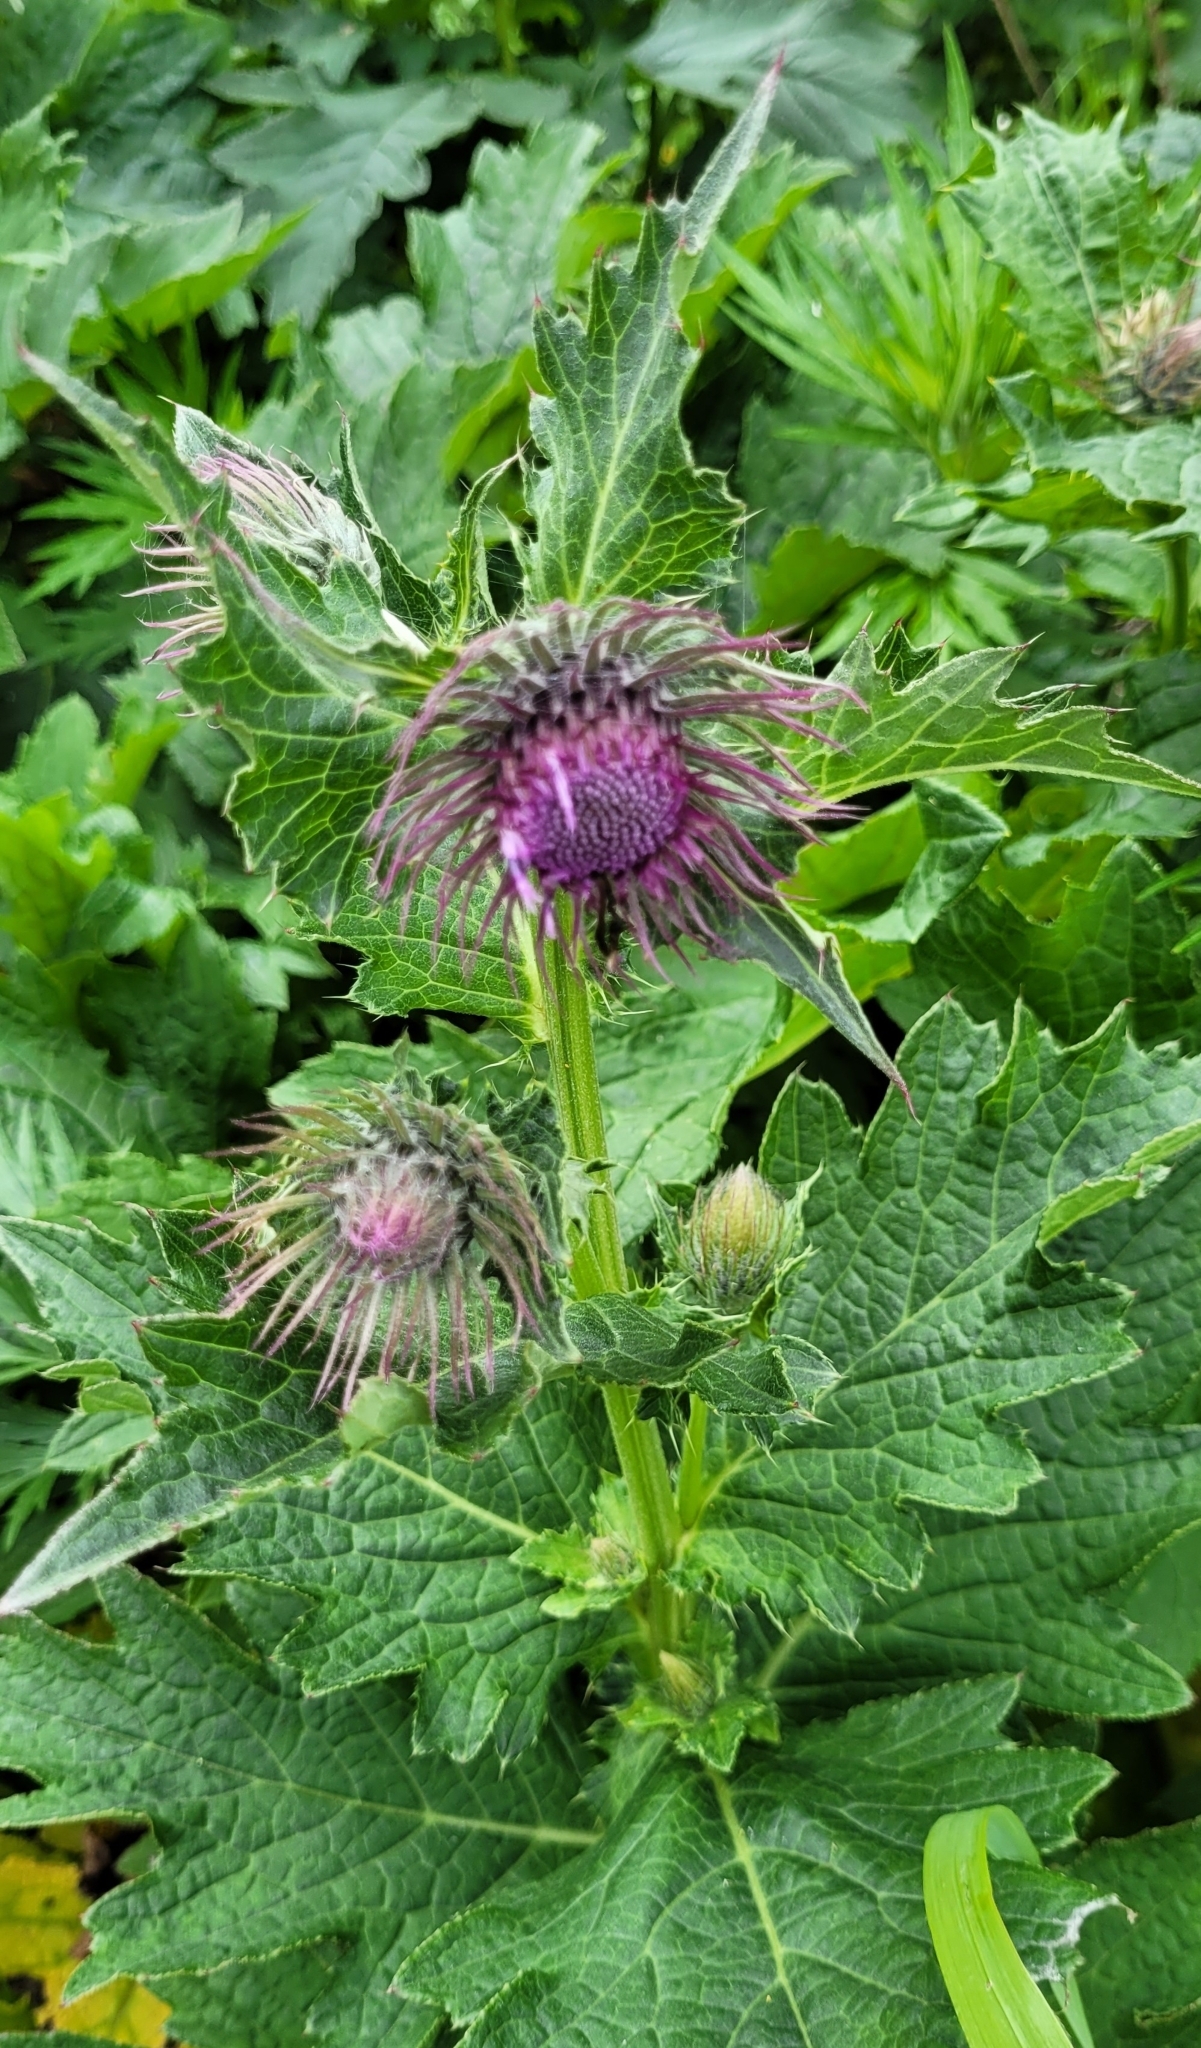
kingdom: Plantae
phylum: Tracheophyta
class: Magnoliopsida
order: Asterales
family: Asteraceae
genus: Cirsium
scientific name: Cirsium kamtschaticum
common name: Kamchatka thistle
